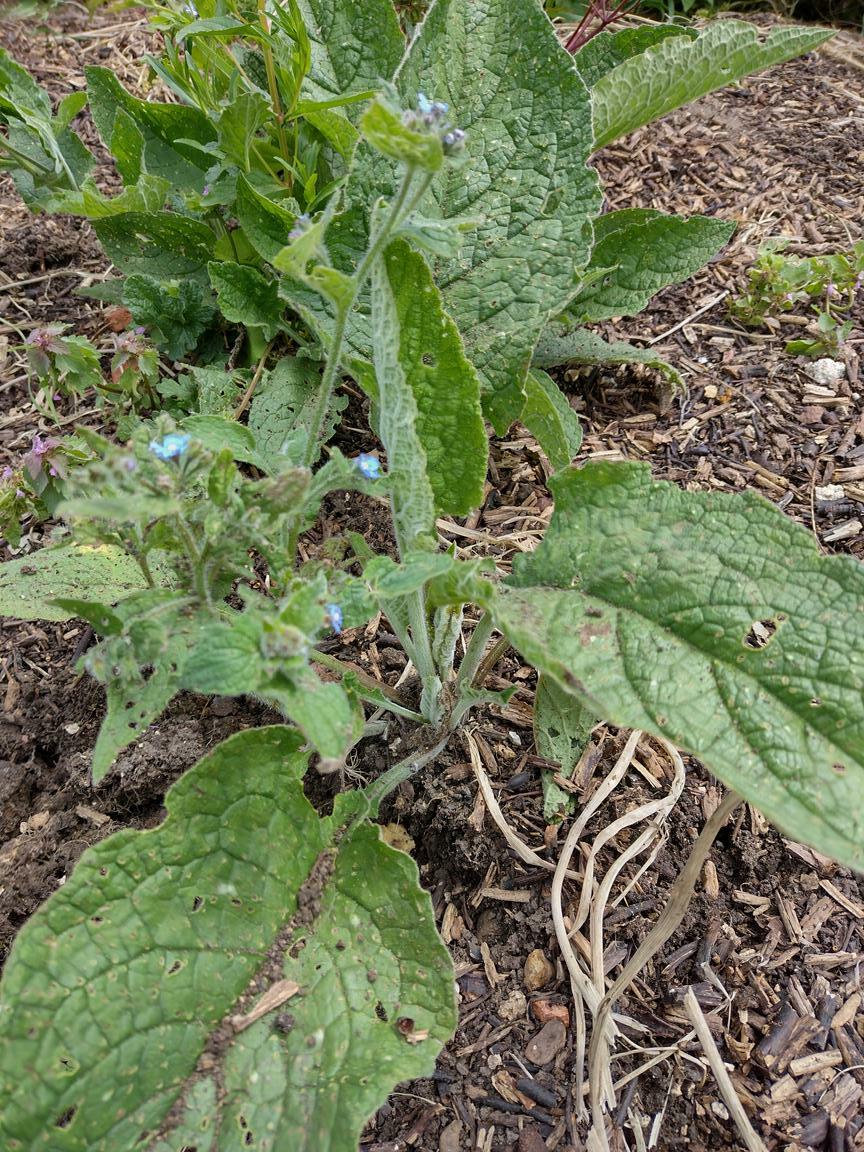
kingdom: Plantae
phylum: Tracheophyta
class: Magnoliopsida
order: Boraginales
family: Boraginaceae
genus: Pentaglottis
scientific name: Pentaglottis sempervirens
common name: Green alkanet
